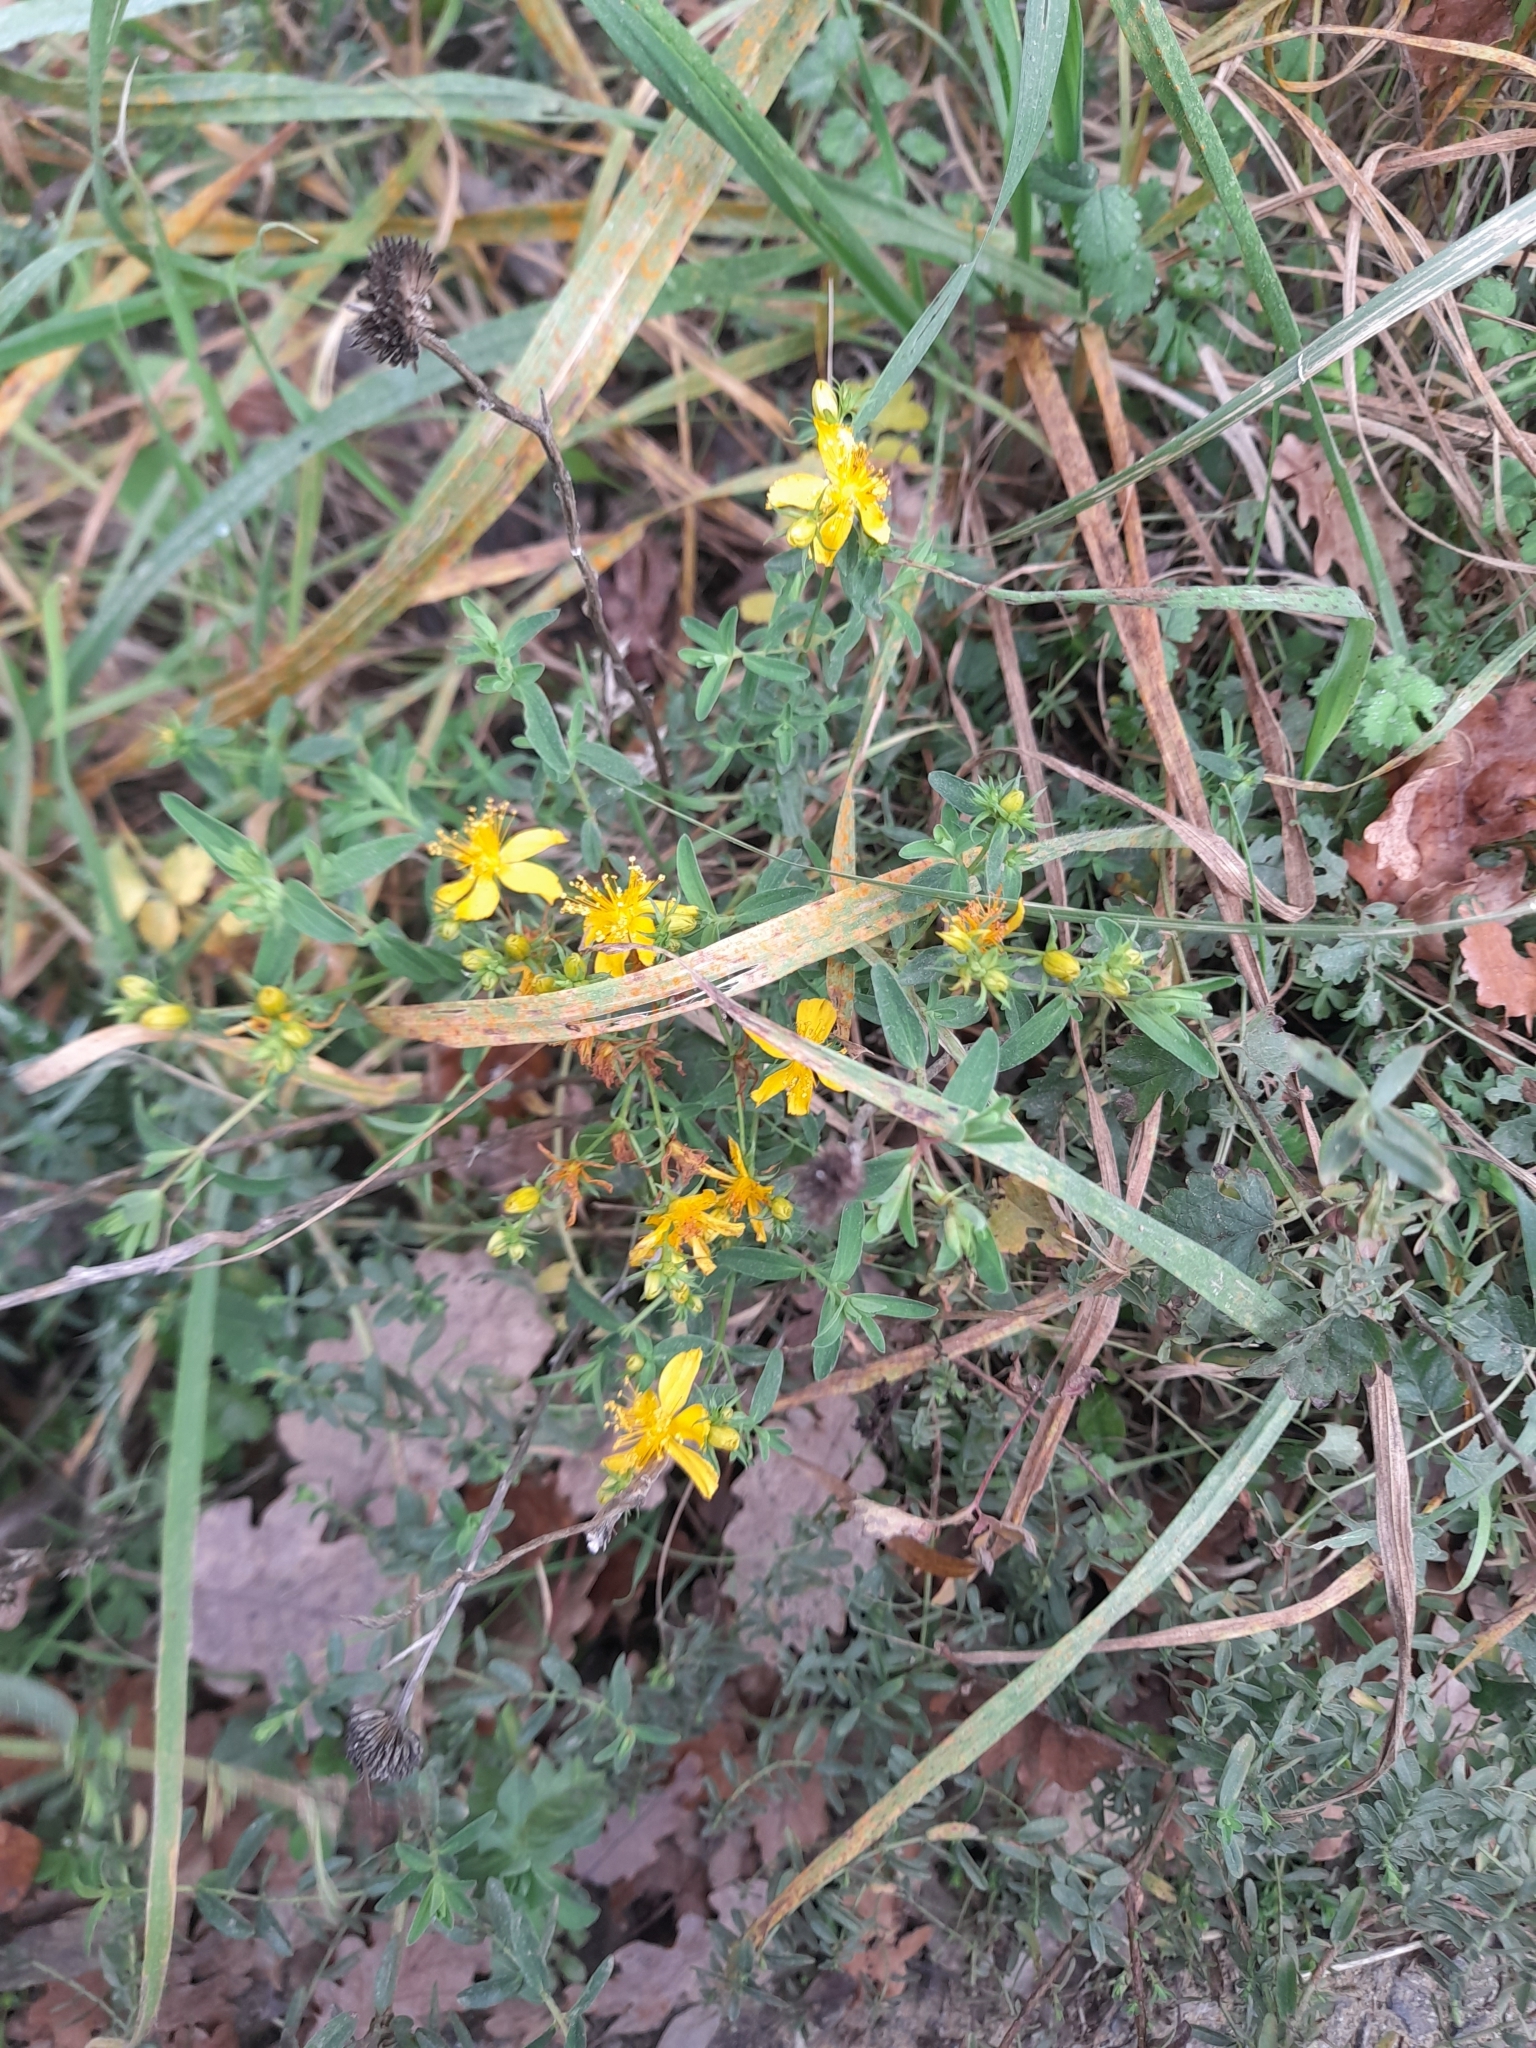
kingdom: Plantae
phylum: Tracheophyta
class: Magnoliopsida
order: Malpighiales
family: Hypericaceae
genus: Hypericum
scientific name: Hypericum perforatum
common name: Common st. johnswort
